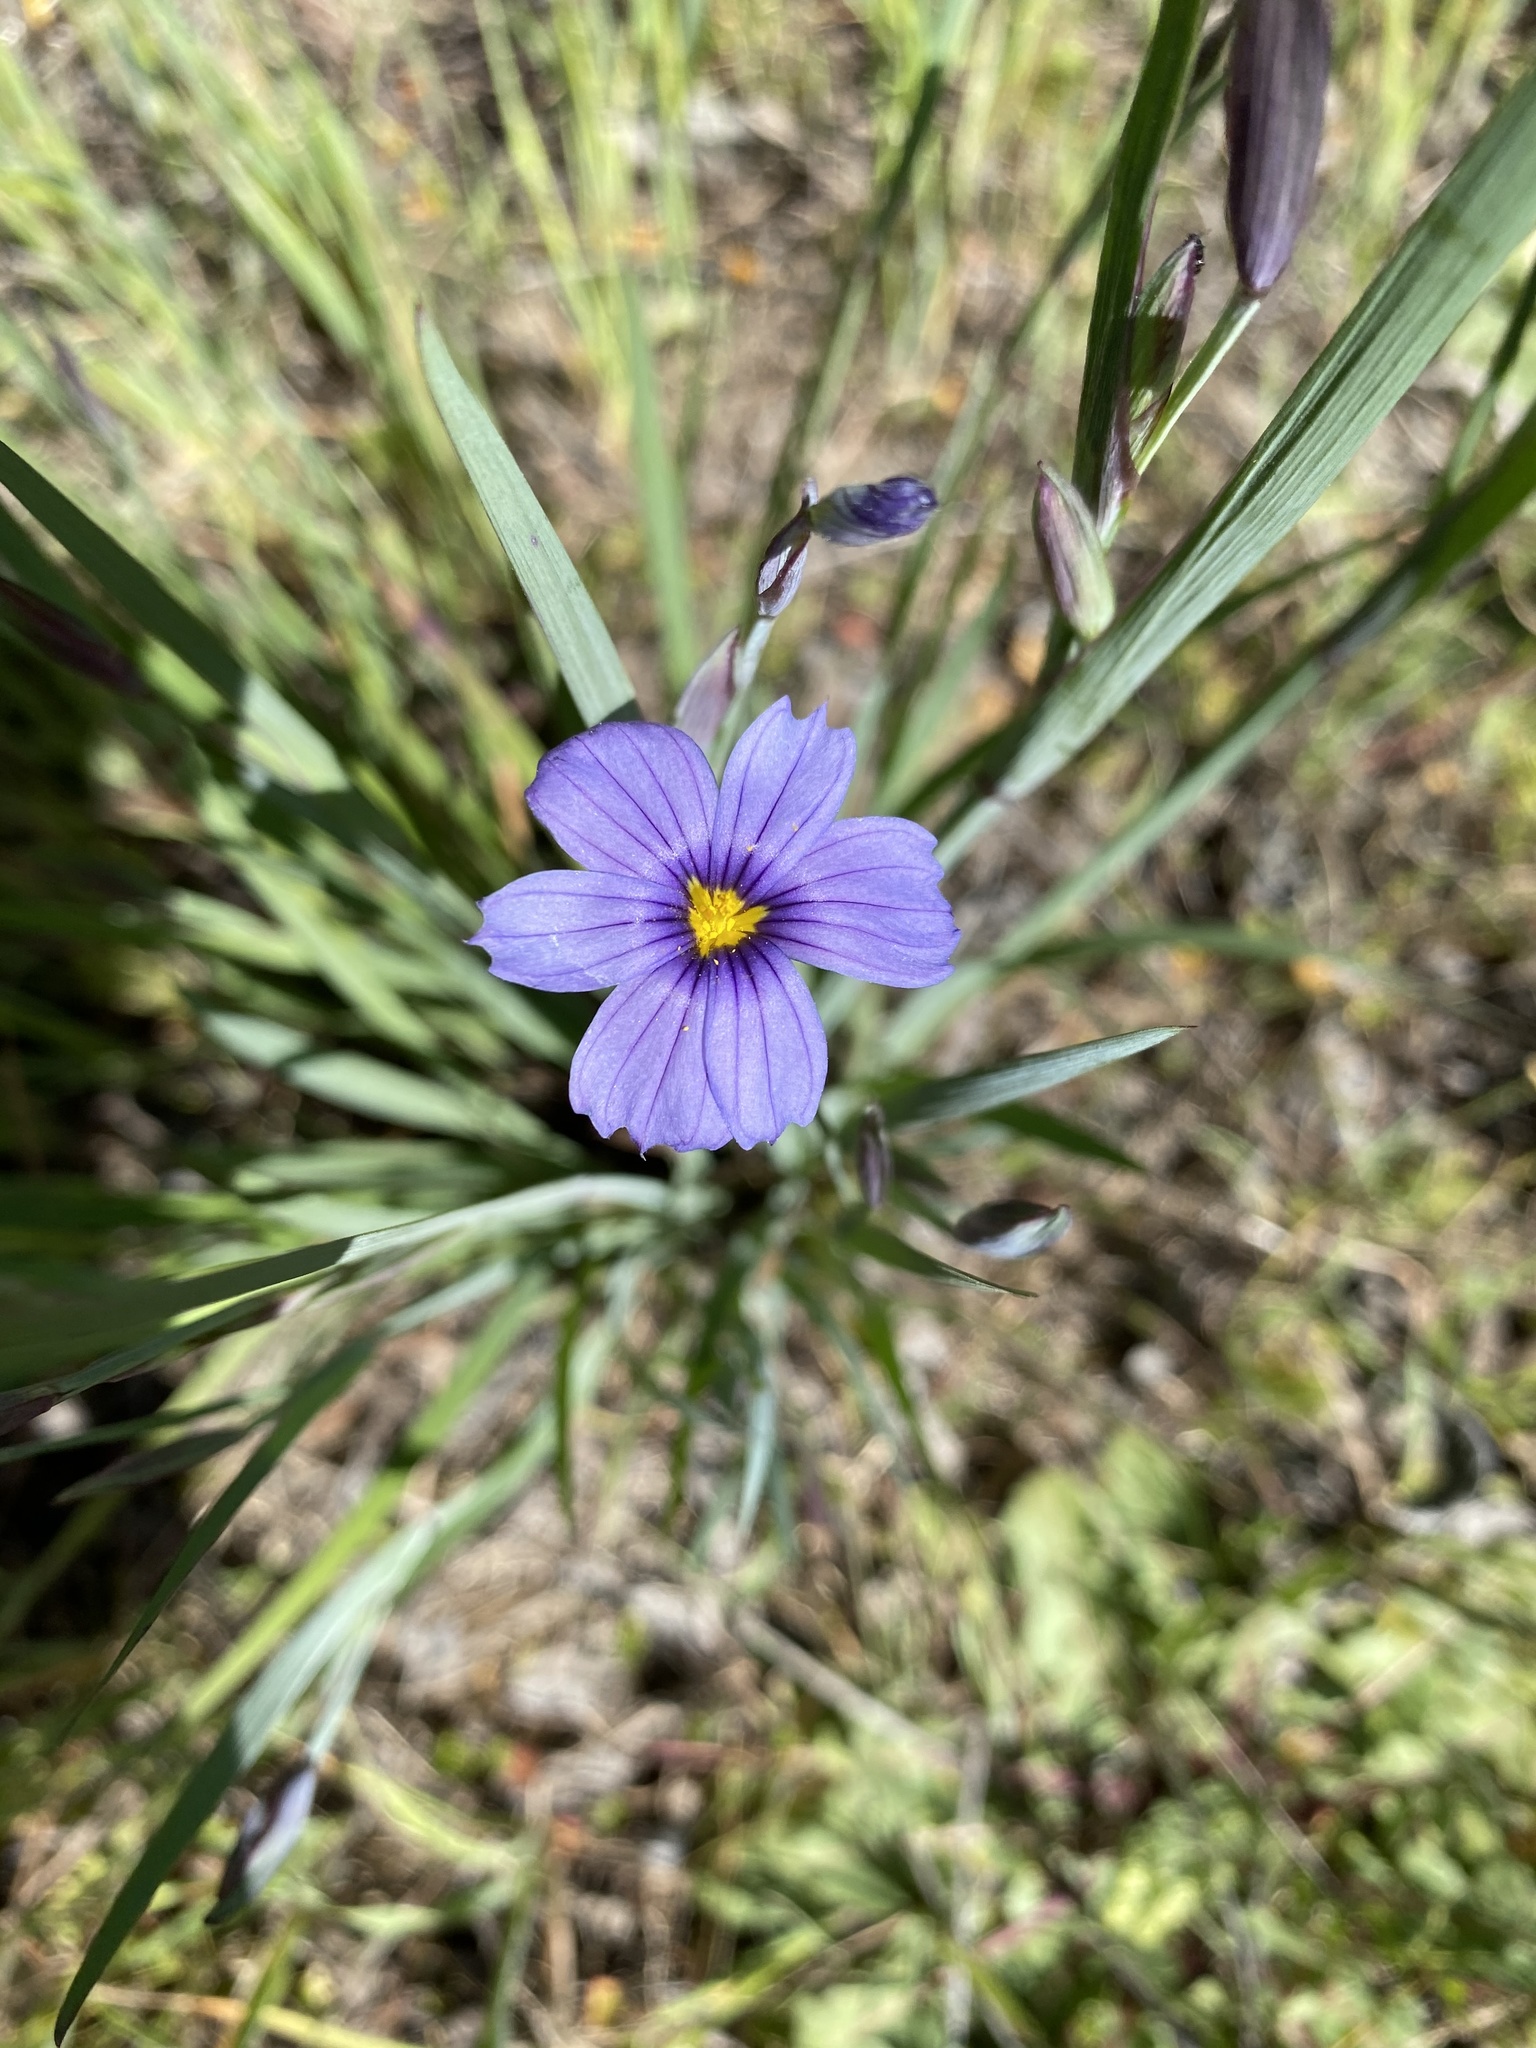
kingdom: Plantae
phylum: Tracheophyta
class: Liliopsida
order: Asparagales
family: Iridaceae
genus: Sisyrinchium
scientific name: Sisyrinchium bellum
